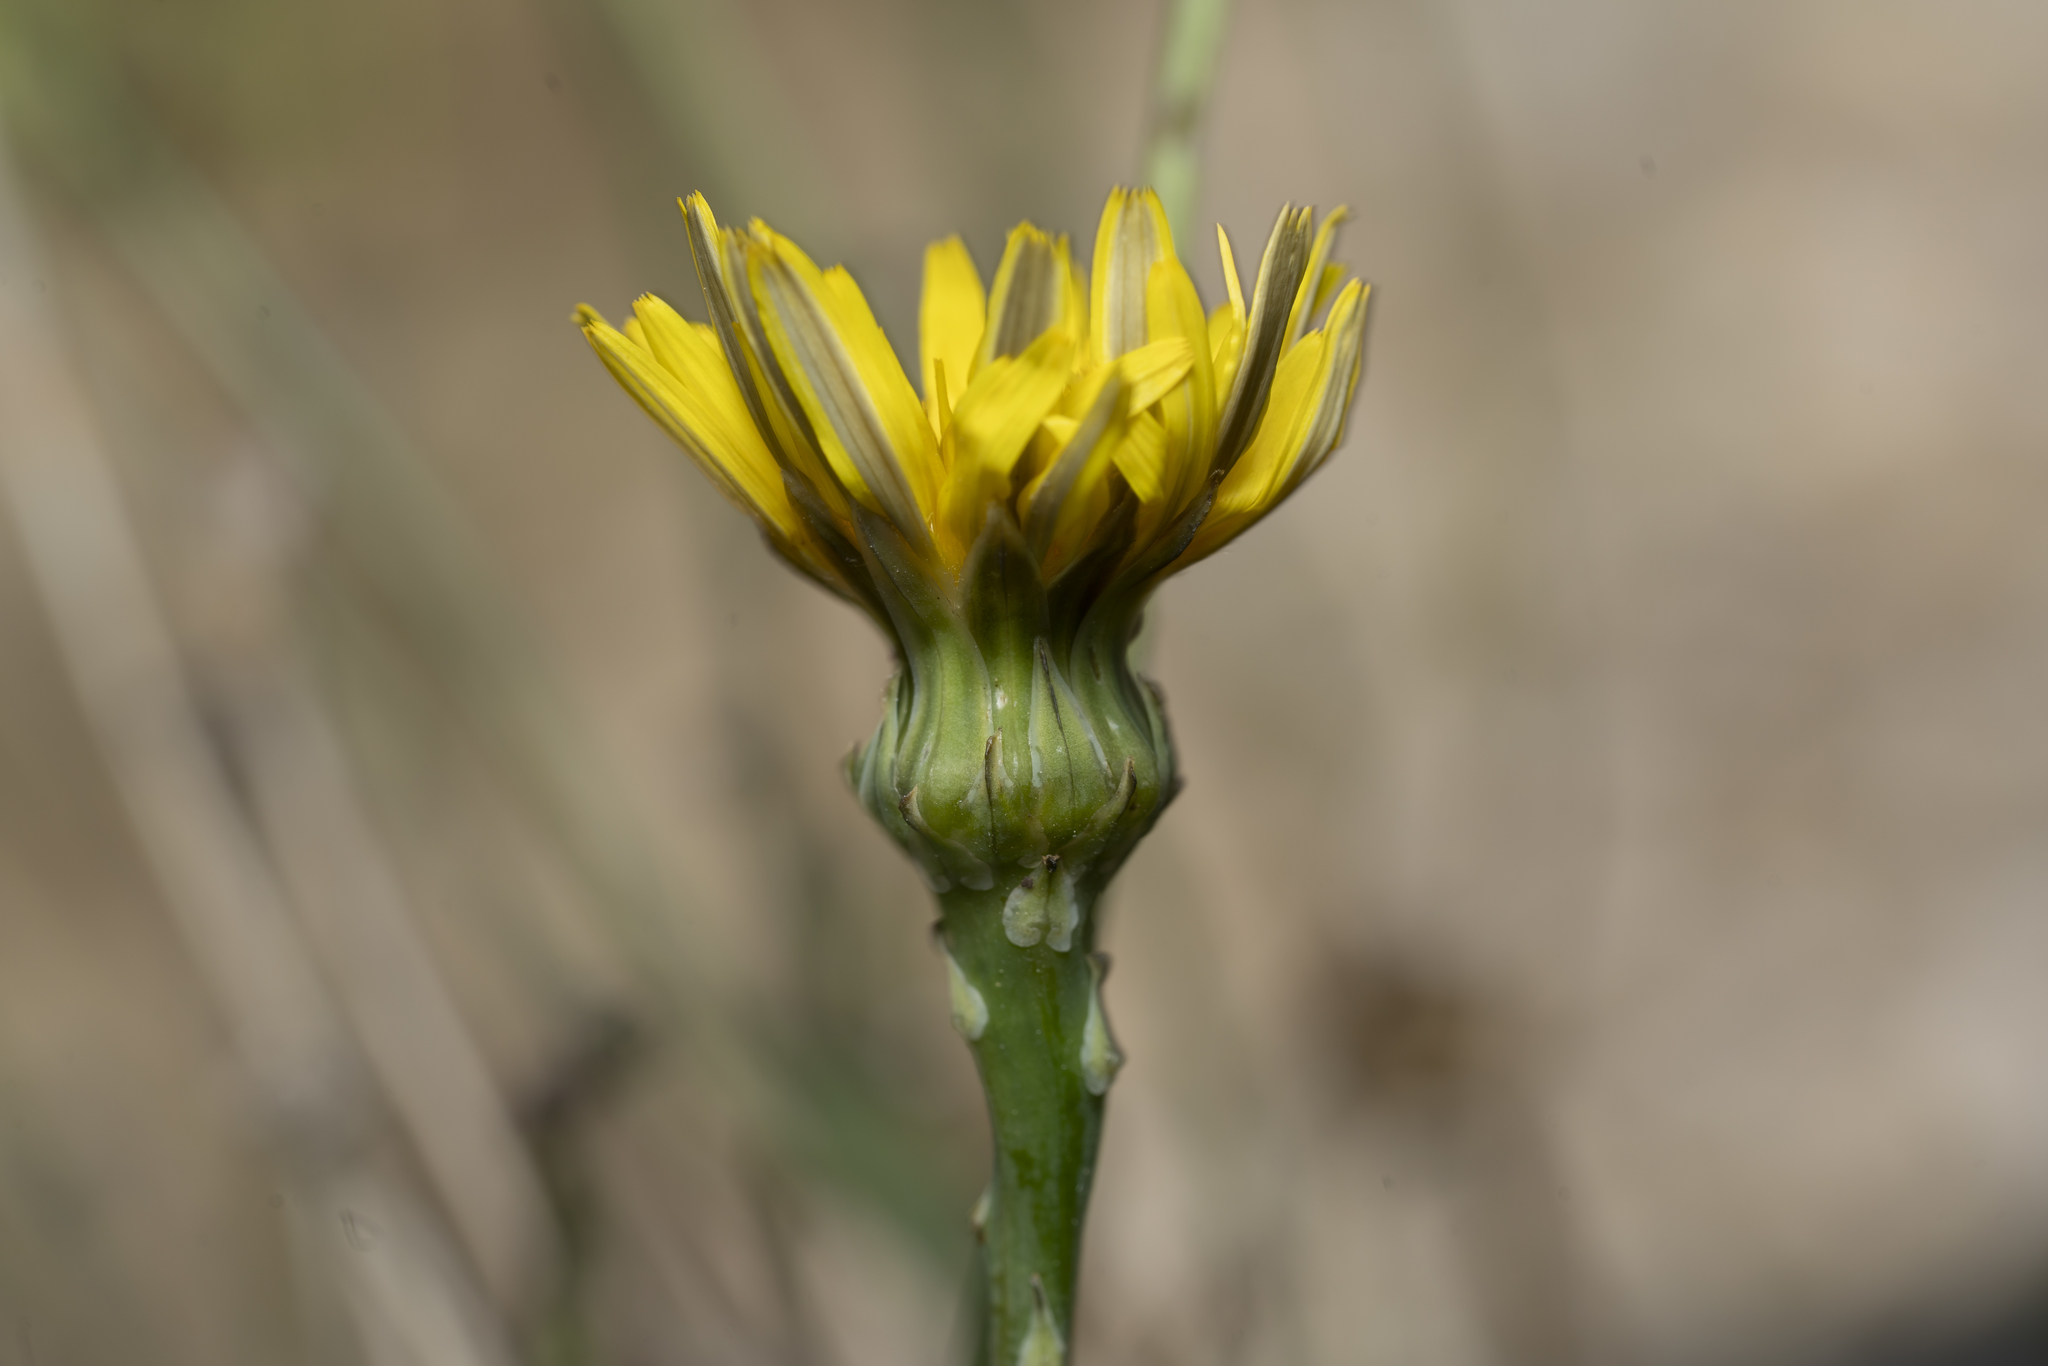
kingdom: Plantae
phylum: Tracheophyta
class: Magnoliopsida
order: Asterales
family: Asteraceae
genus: Reichardia
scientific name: Reichardia picroides
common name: Common brighteyes
